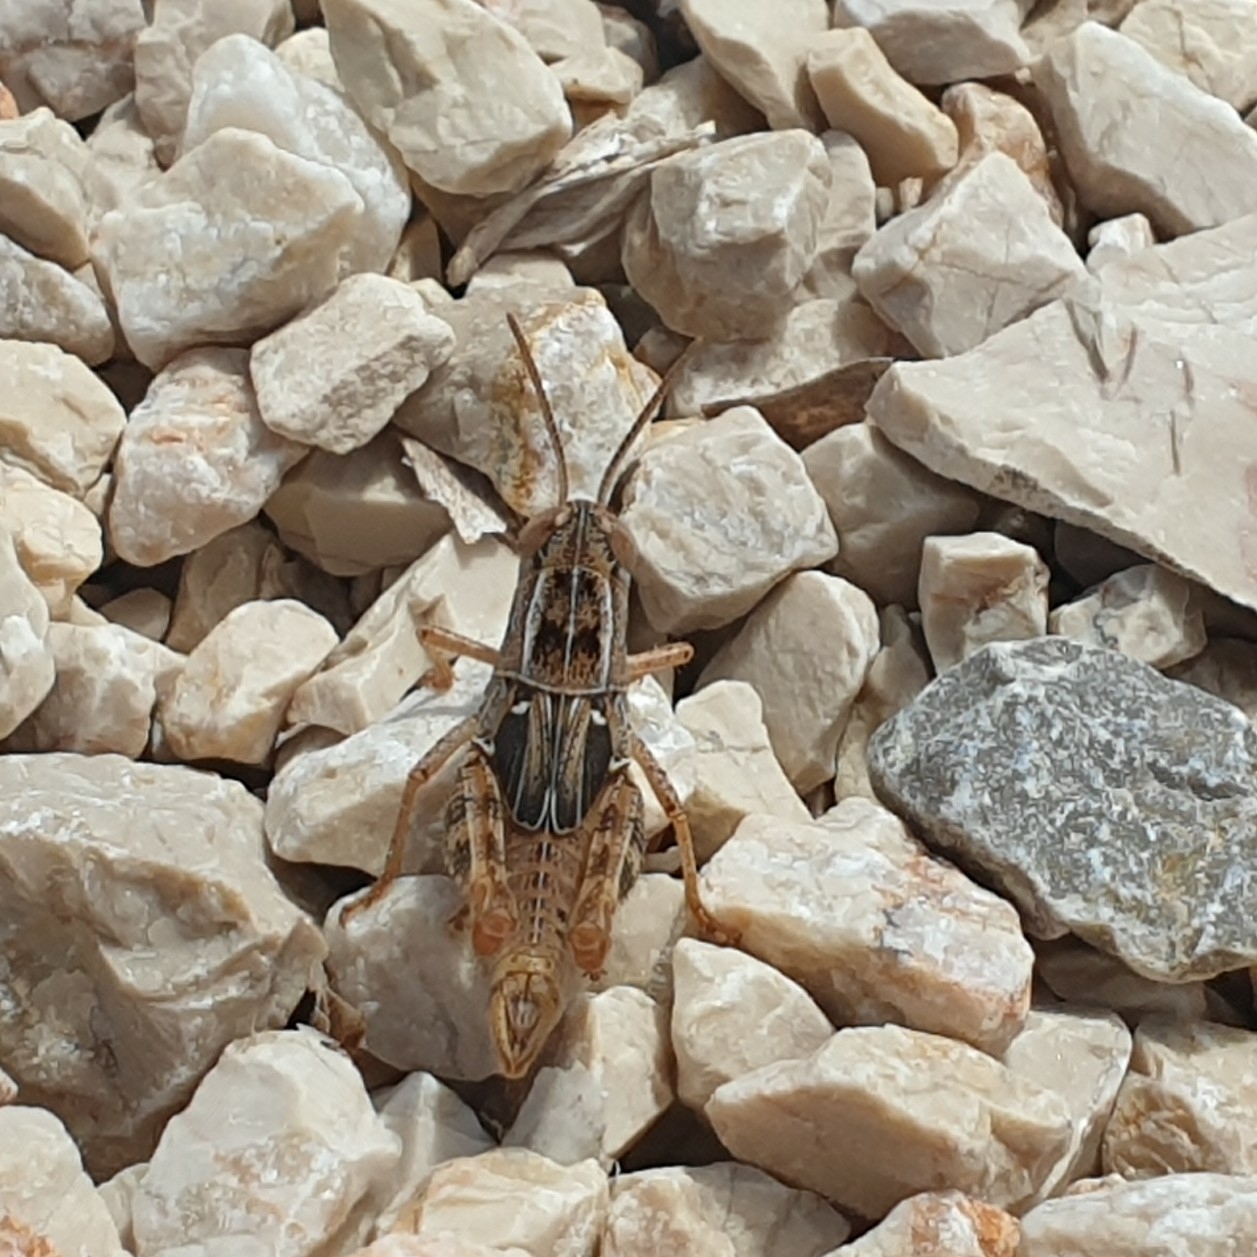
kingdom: Animalia
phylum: Arthropoda
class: Insecta
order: Orthoptera
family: Acrididae
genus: Calliptamus
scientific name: Calliptamus italicus
